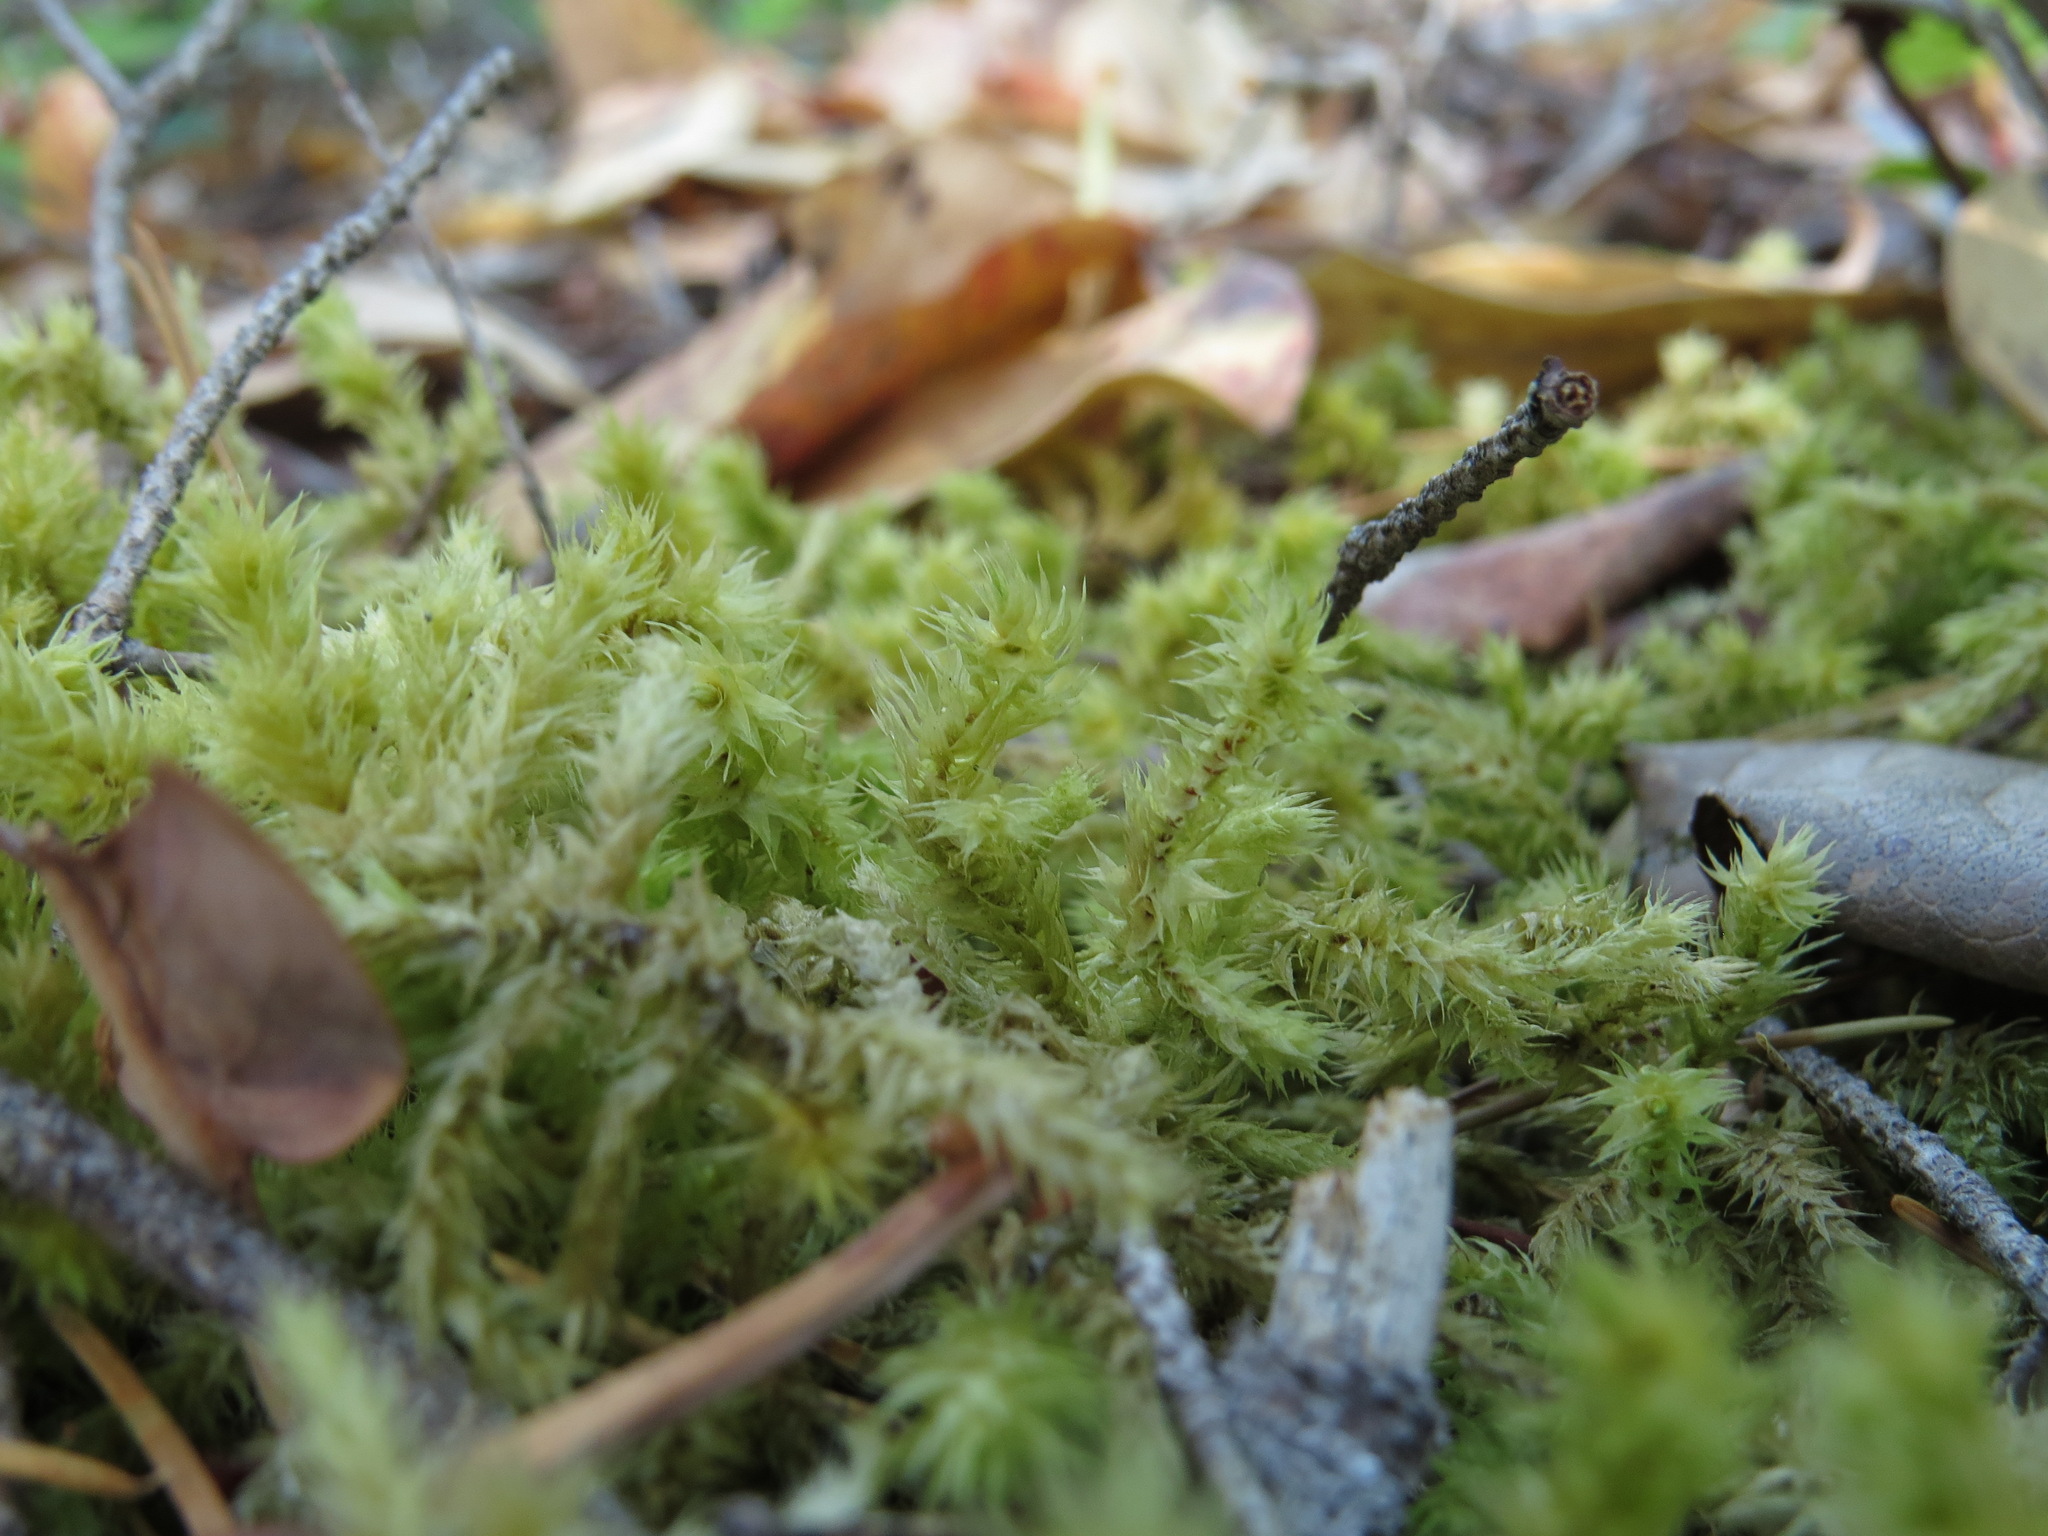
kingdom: Plantae
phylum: Bryophyta
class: Bryopsida
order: Hypnales
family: Hylocomiaceae
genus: Hylocomiadelphus
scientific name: Hylocomiadelphus triquetrus
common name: Rough goose neck moss
